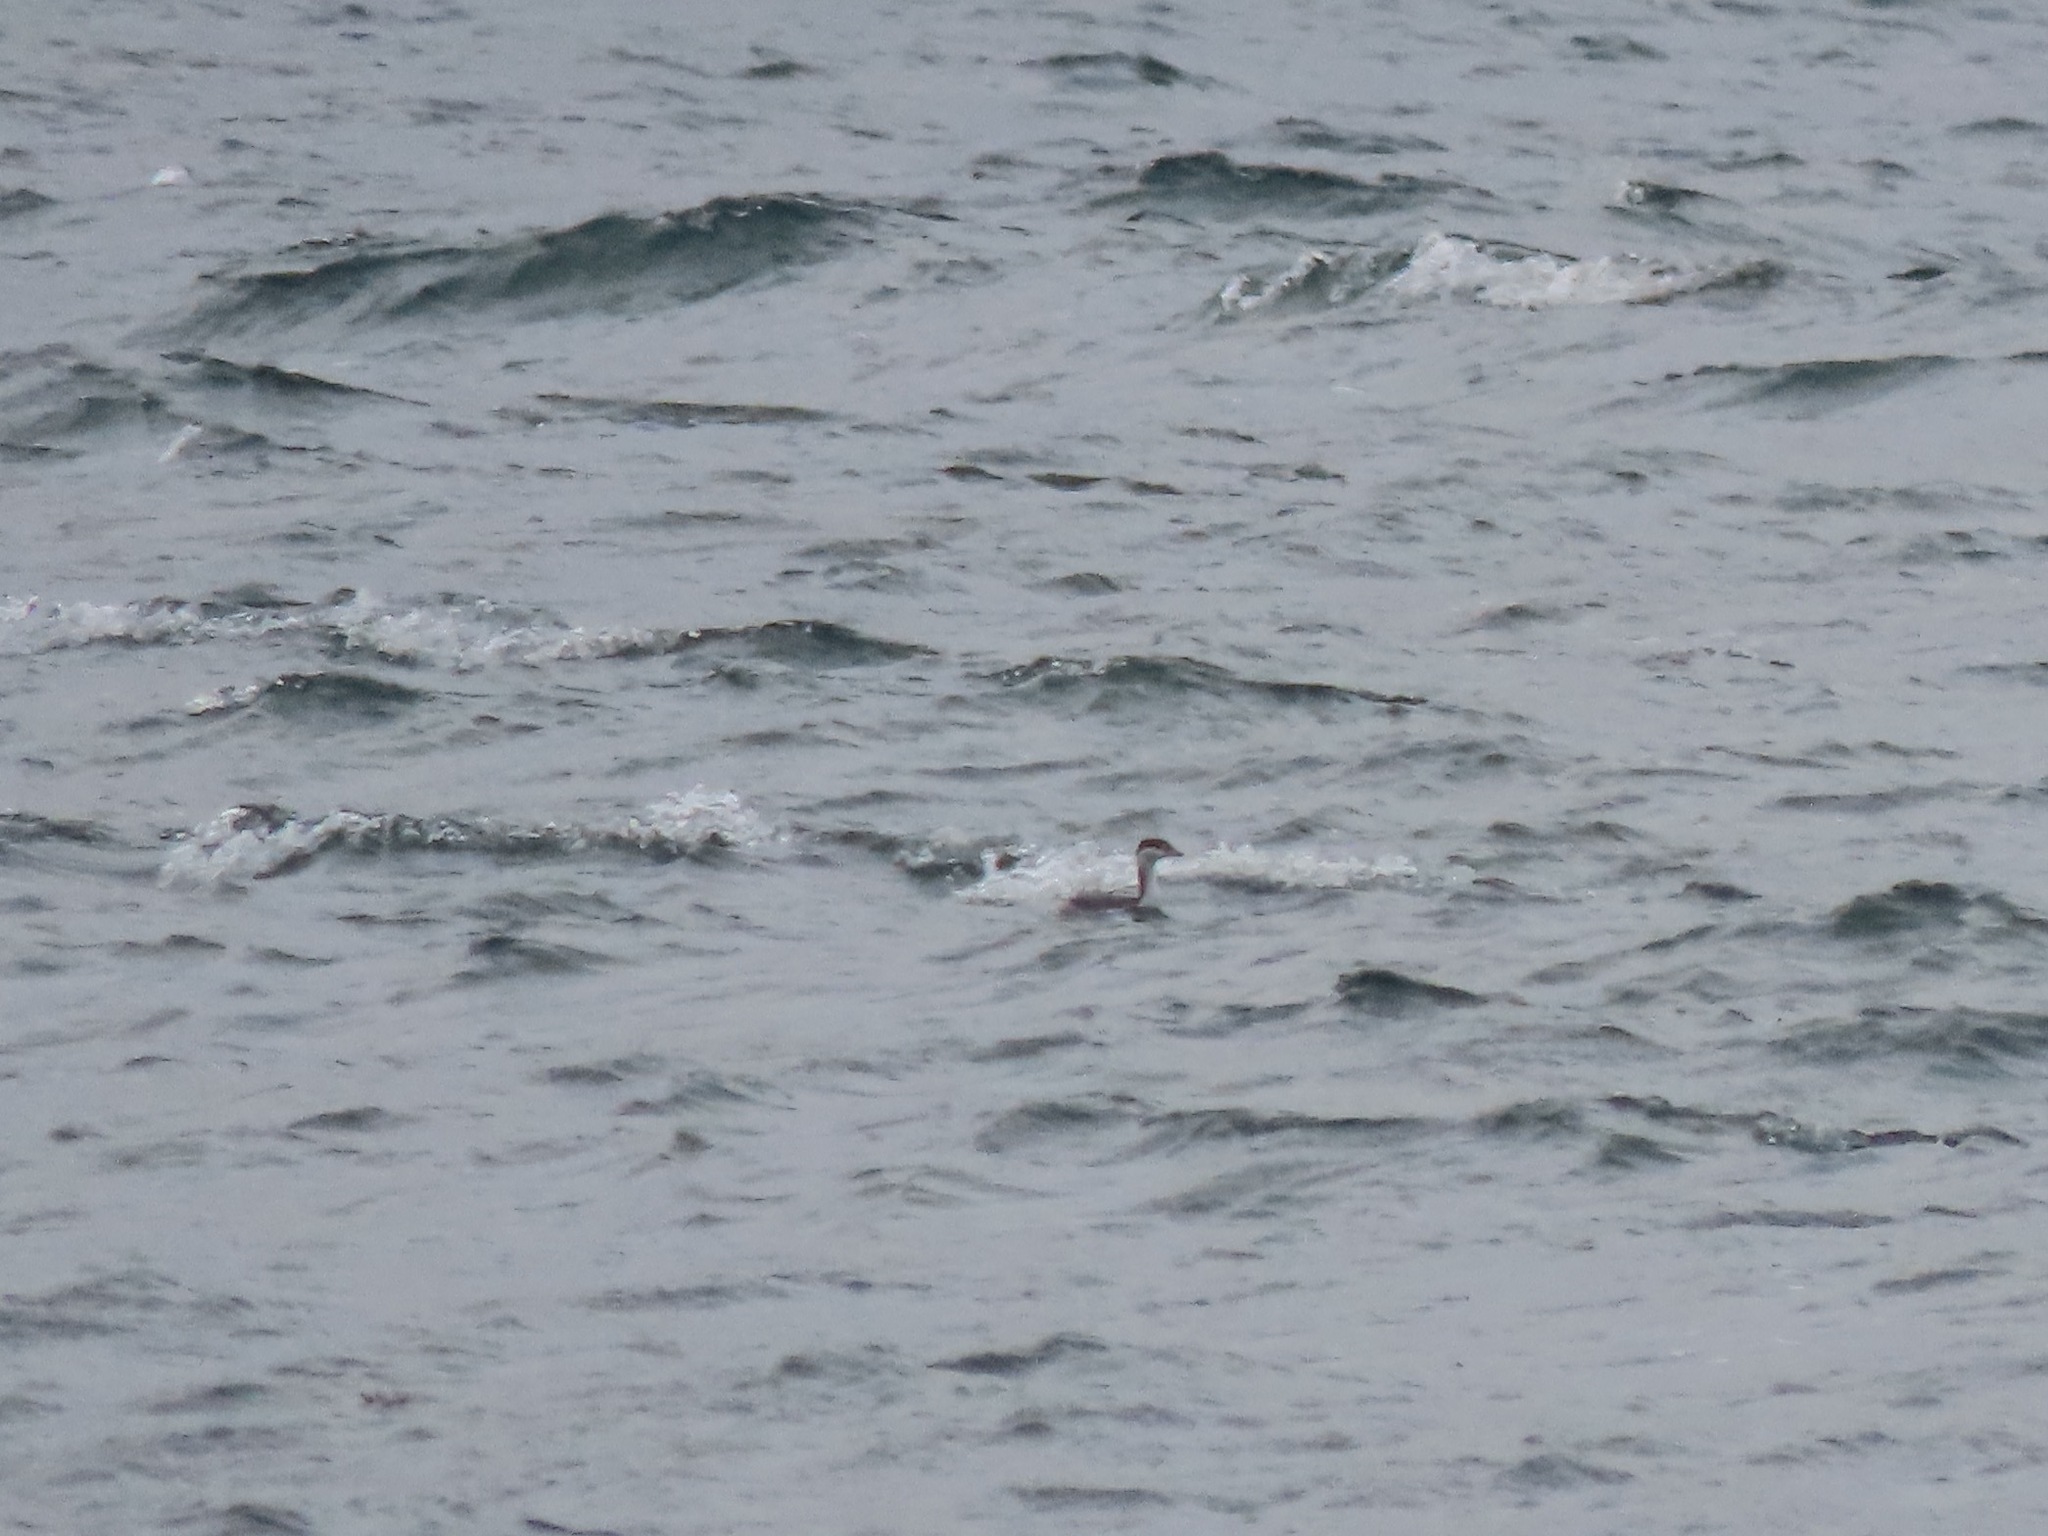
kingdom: Animalia
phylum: Chordata
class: Aves
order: Podicipediformes
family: Podicipedidae
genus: Podiceps
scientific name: Podiceps auritus
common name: Horned grebe
